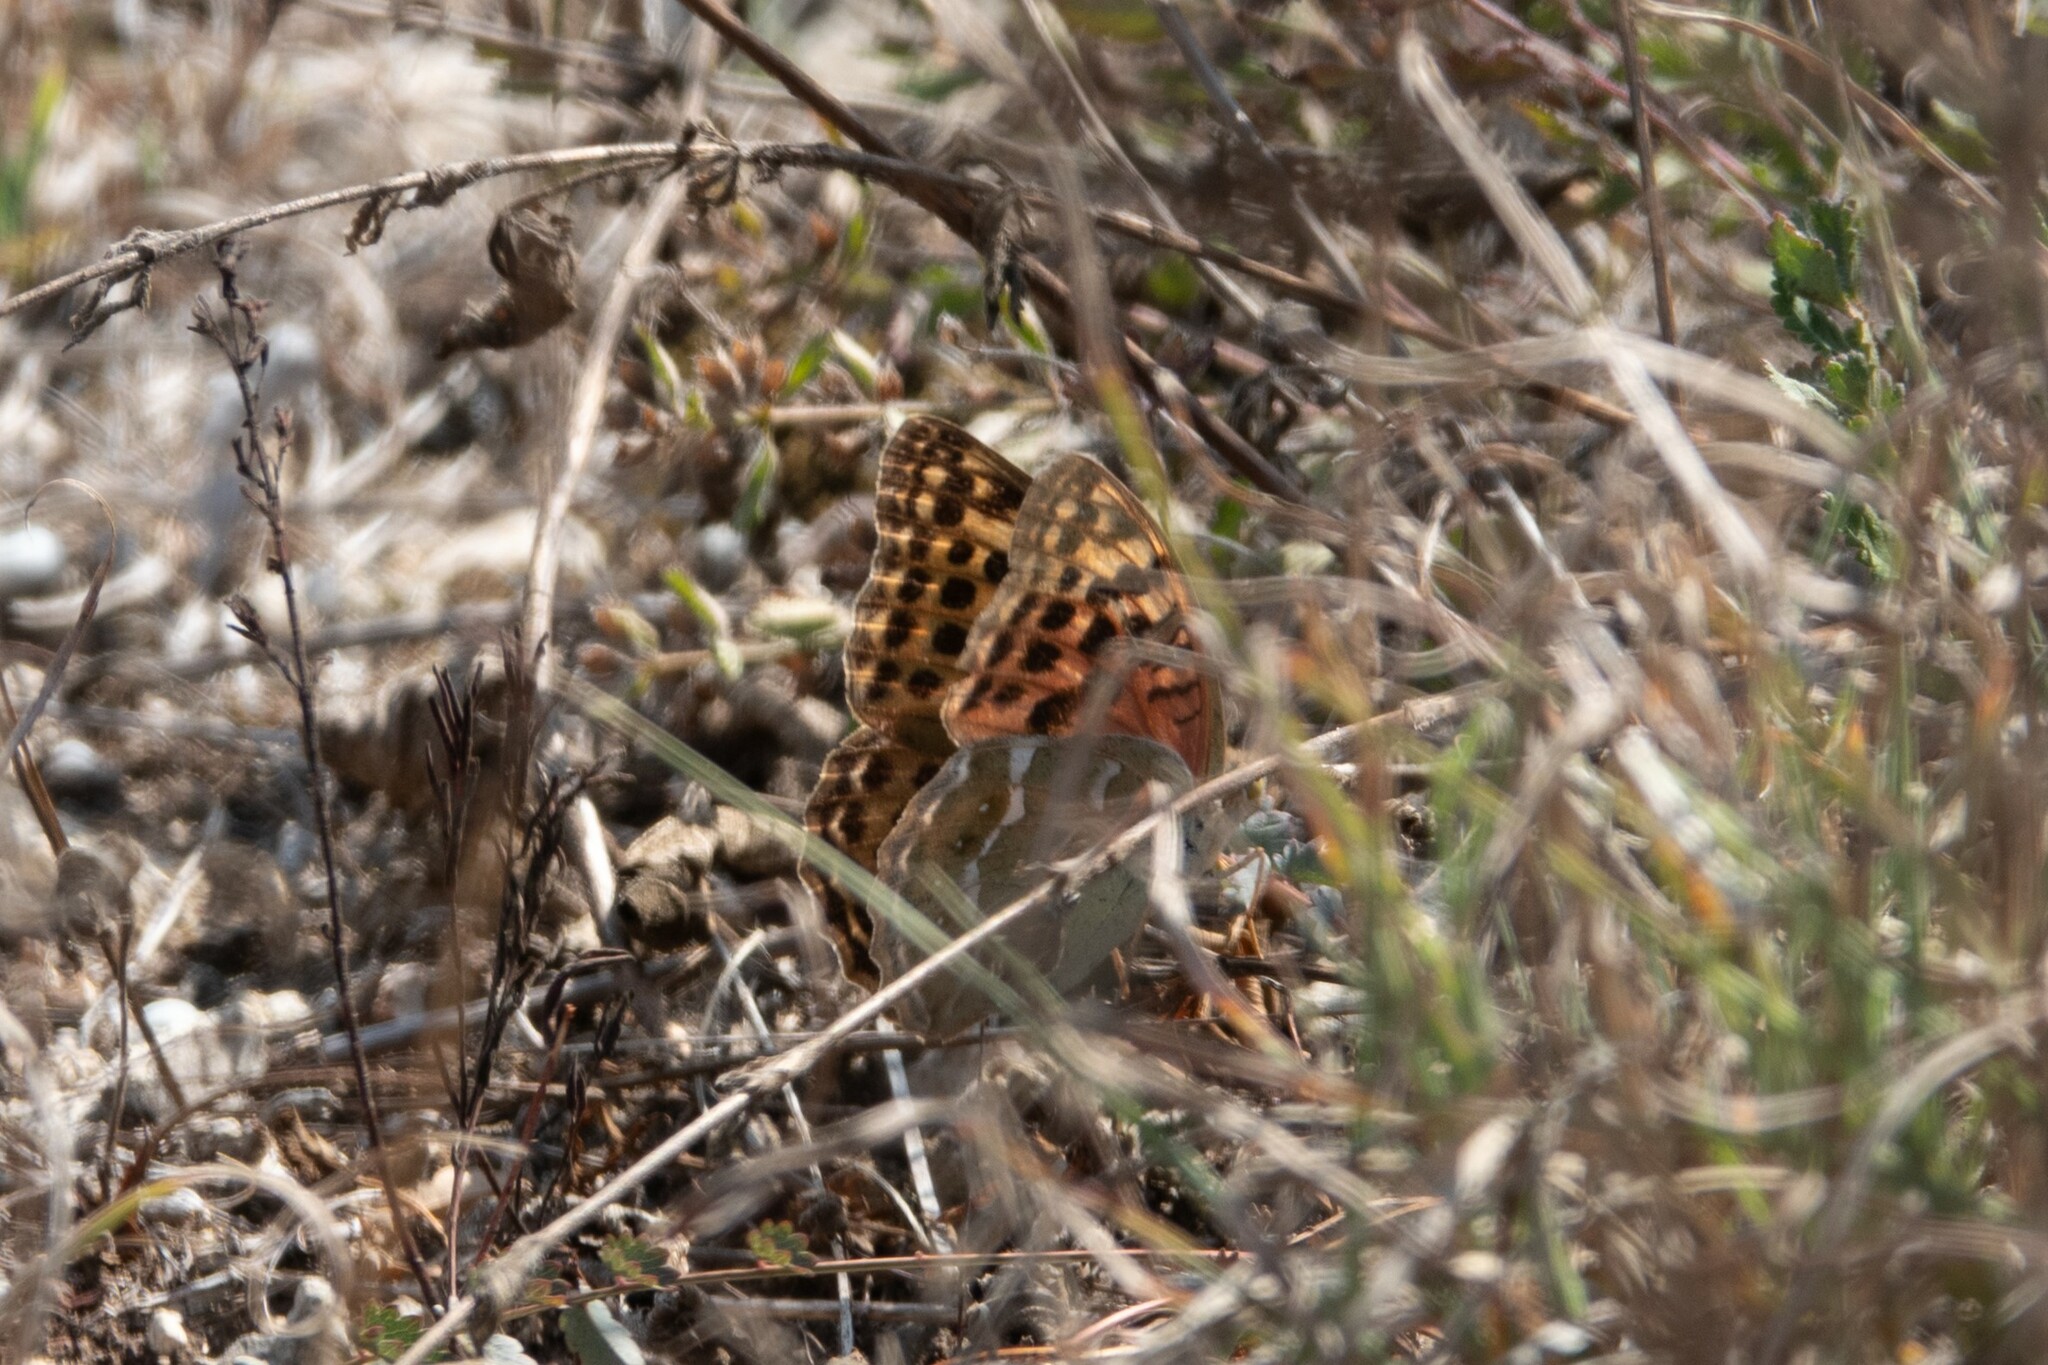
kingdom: Animalia
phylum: Arthropoda
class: Insecta
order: Lepidoptera
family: Nymphalidae
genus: Damora
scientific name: Damora pandora
